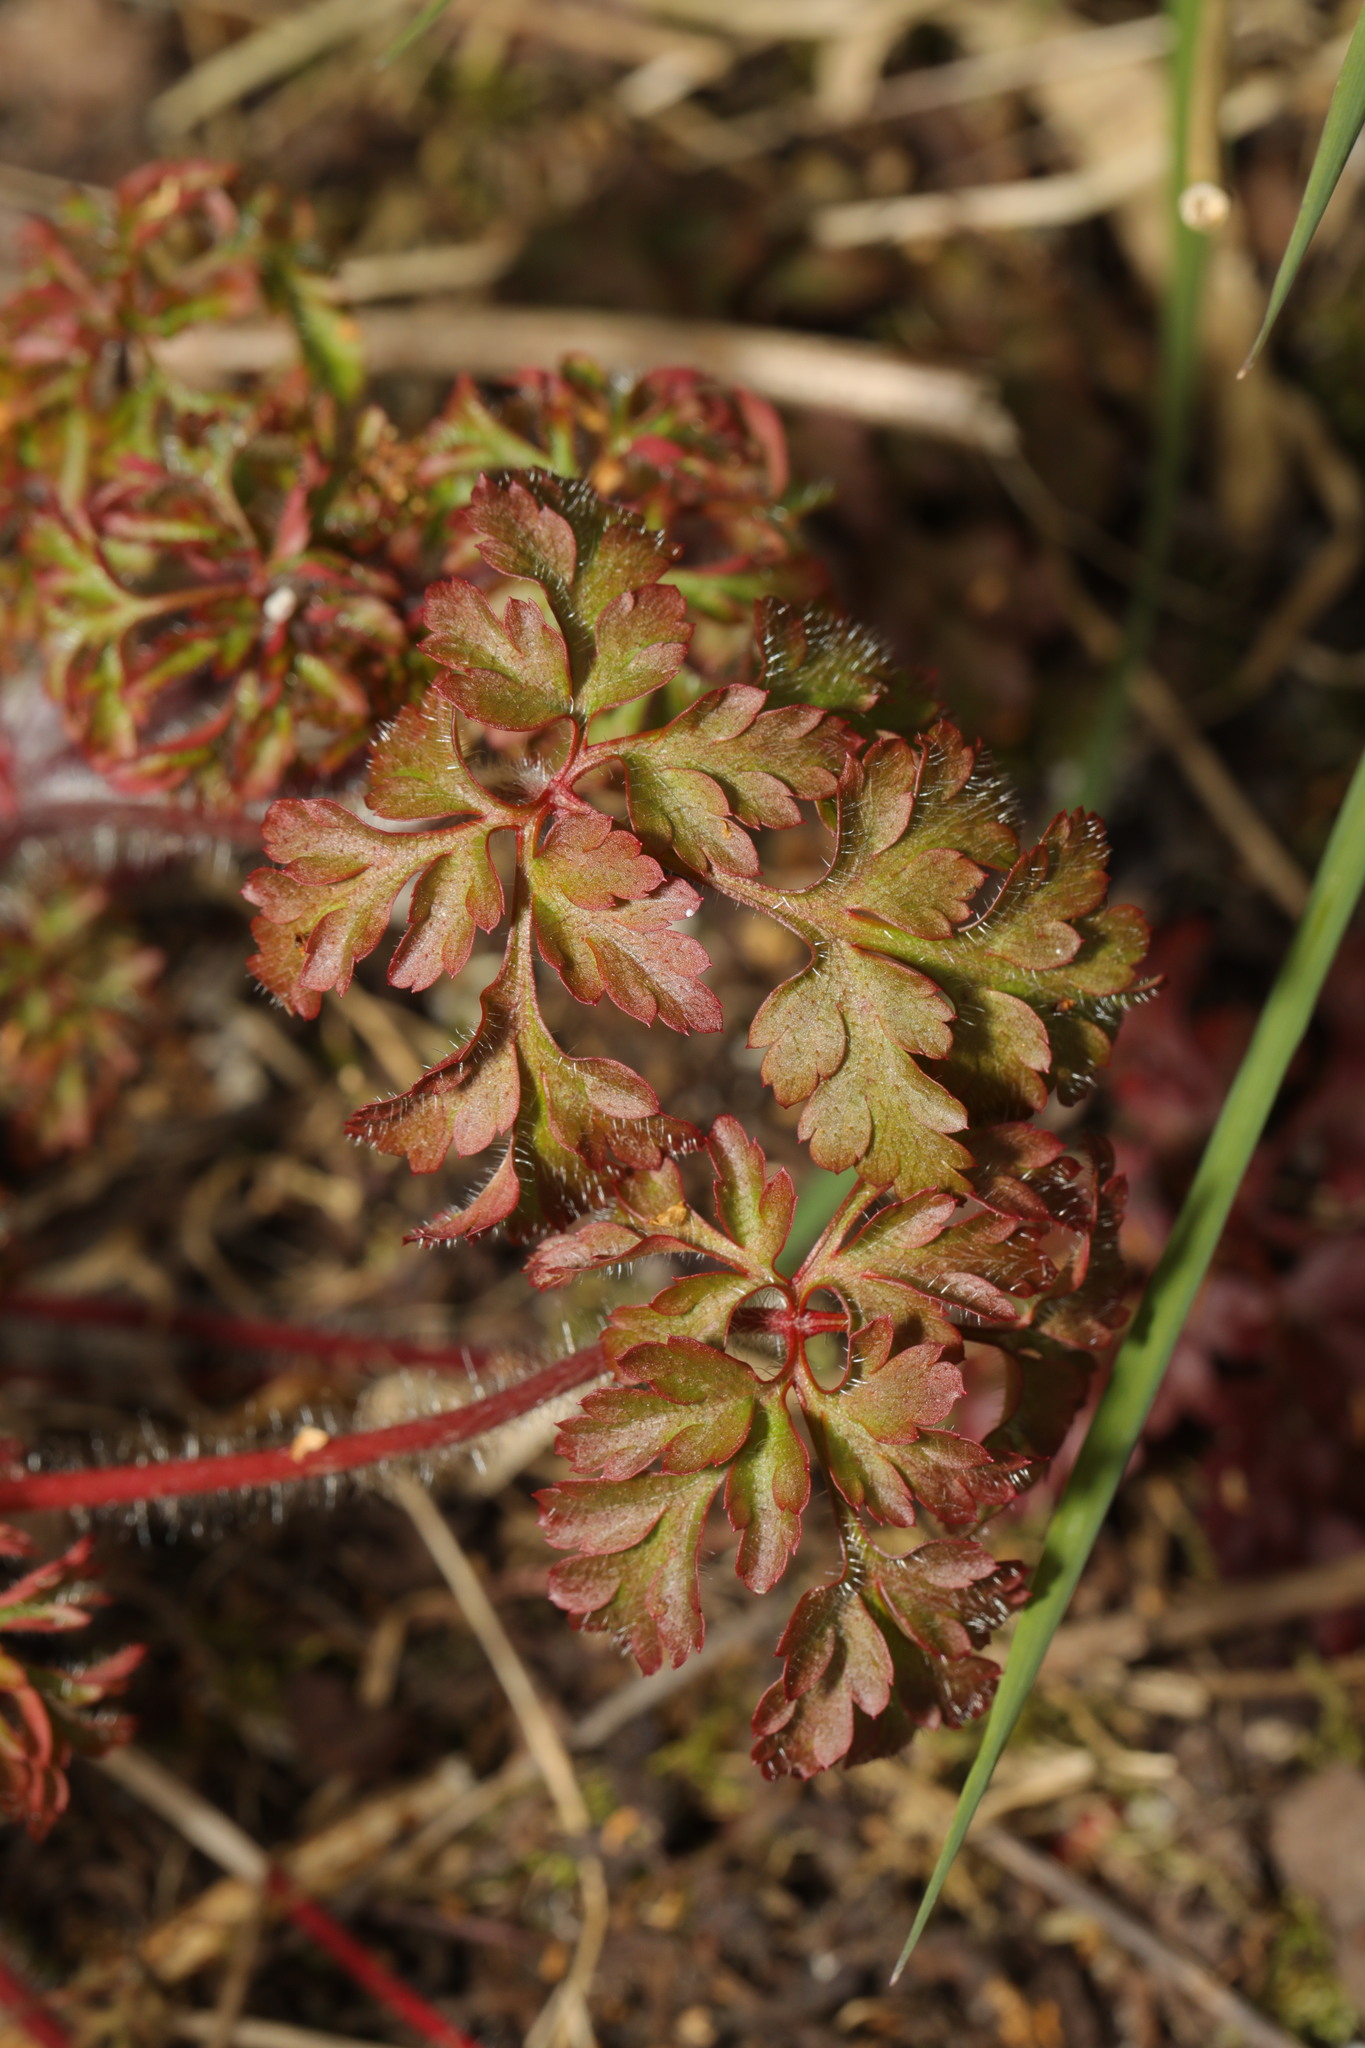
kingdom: Plantae
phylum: Tracheophyta
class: Magnoliopsida
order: Geraniales
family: Geraniaceae
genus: Geranium
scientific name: Geranium robertianum
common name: Herb-robert
